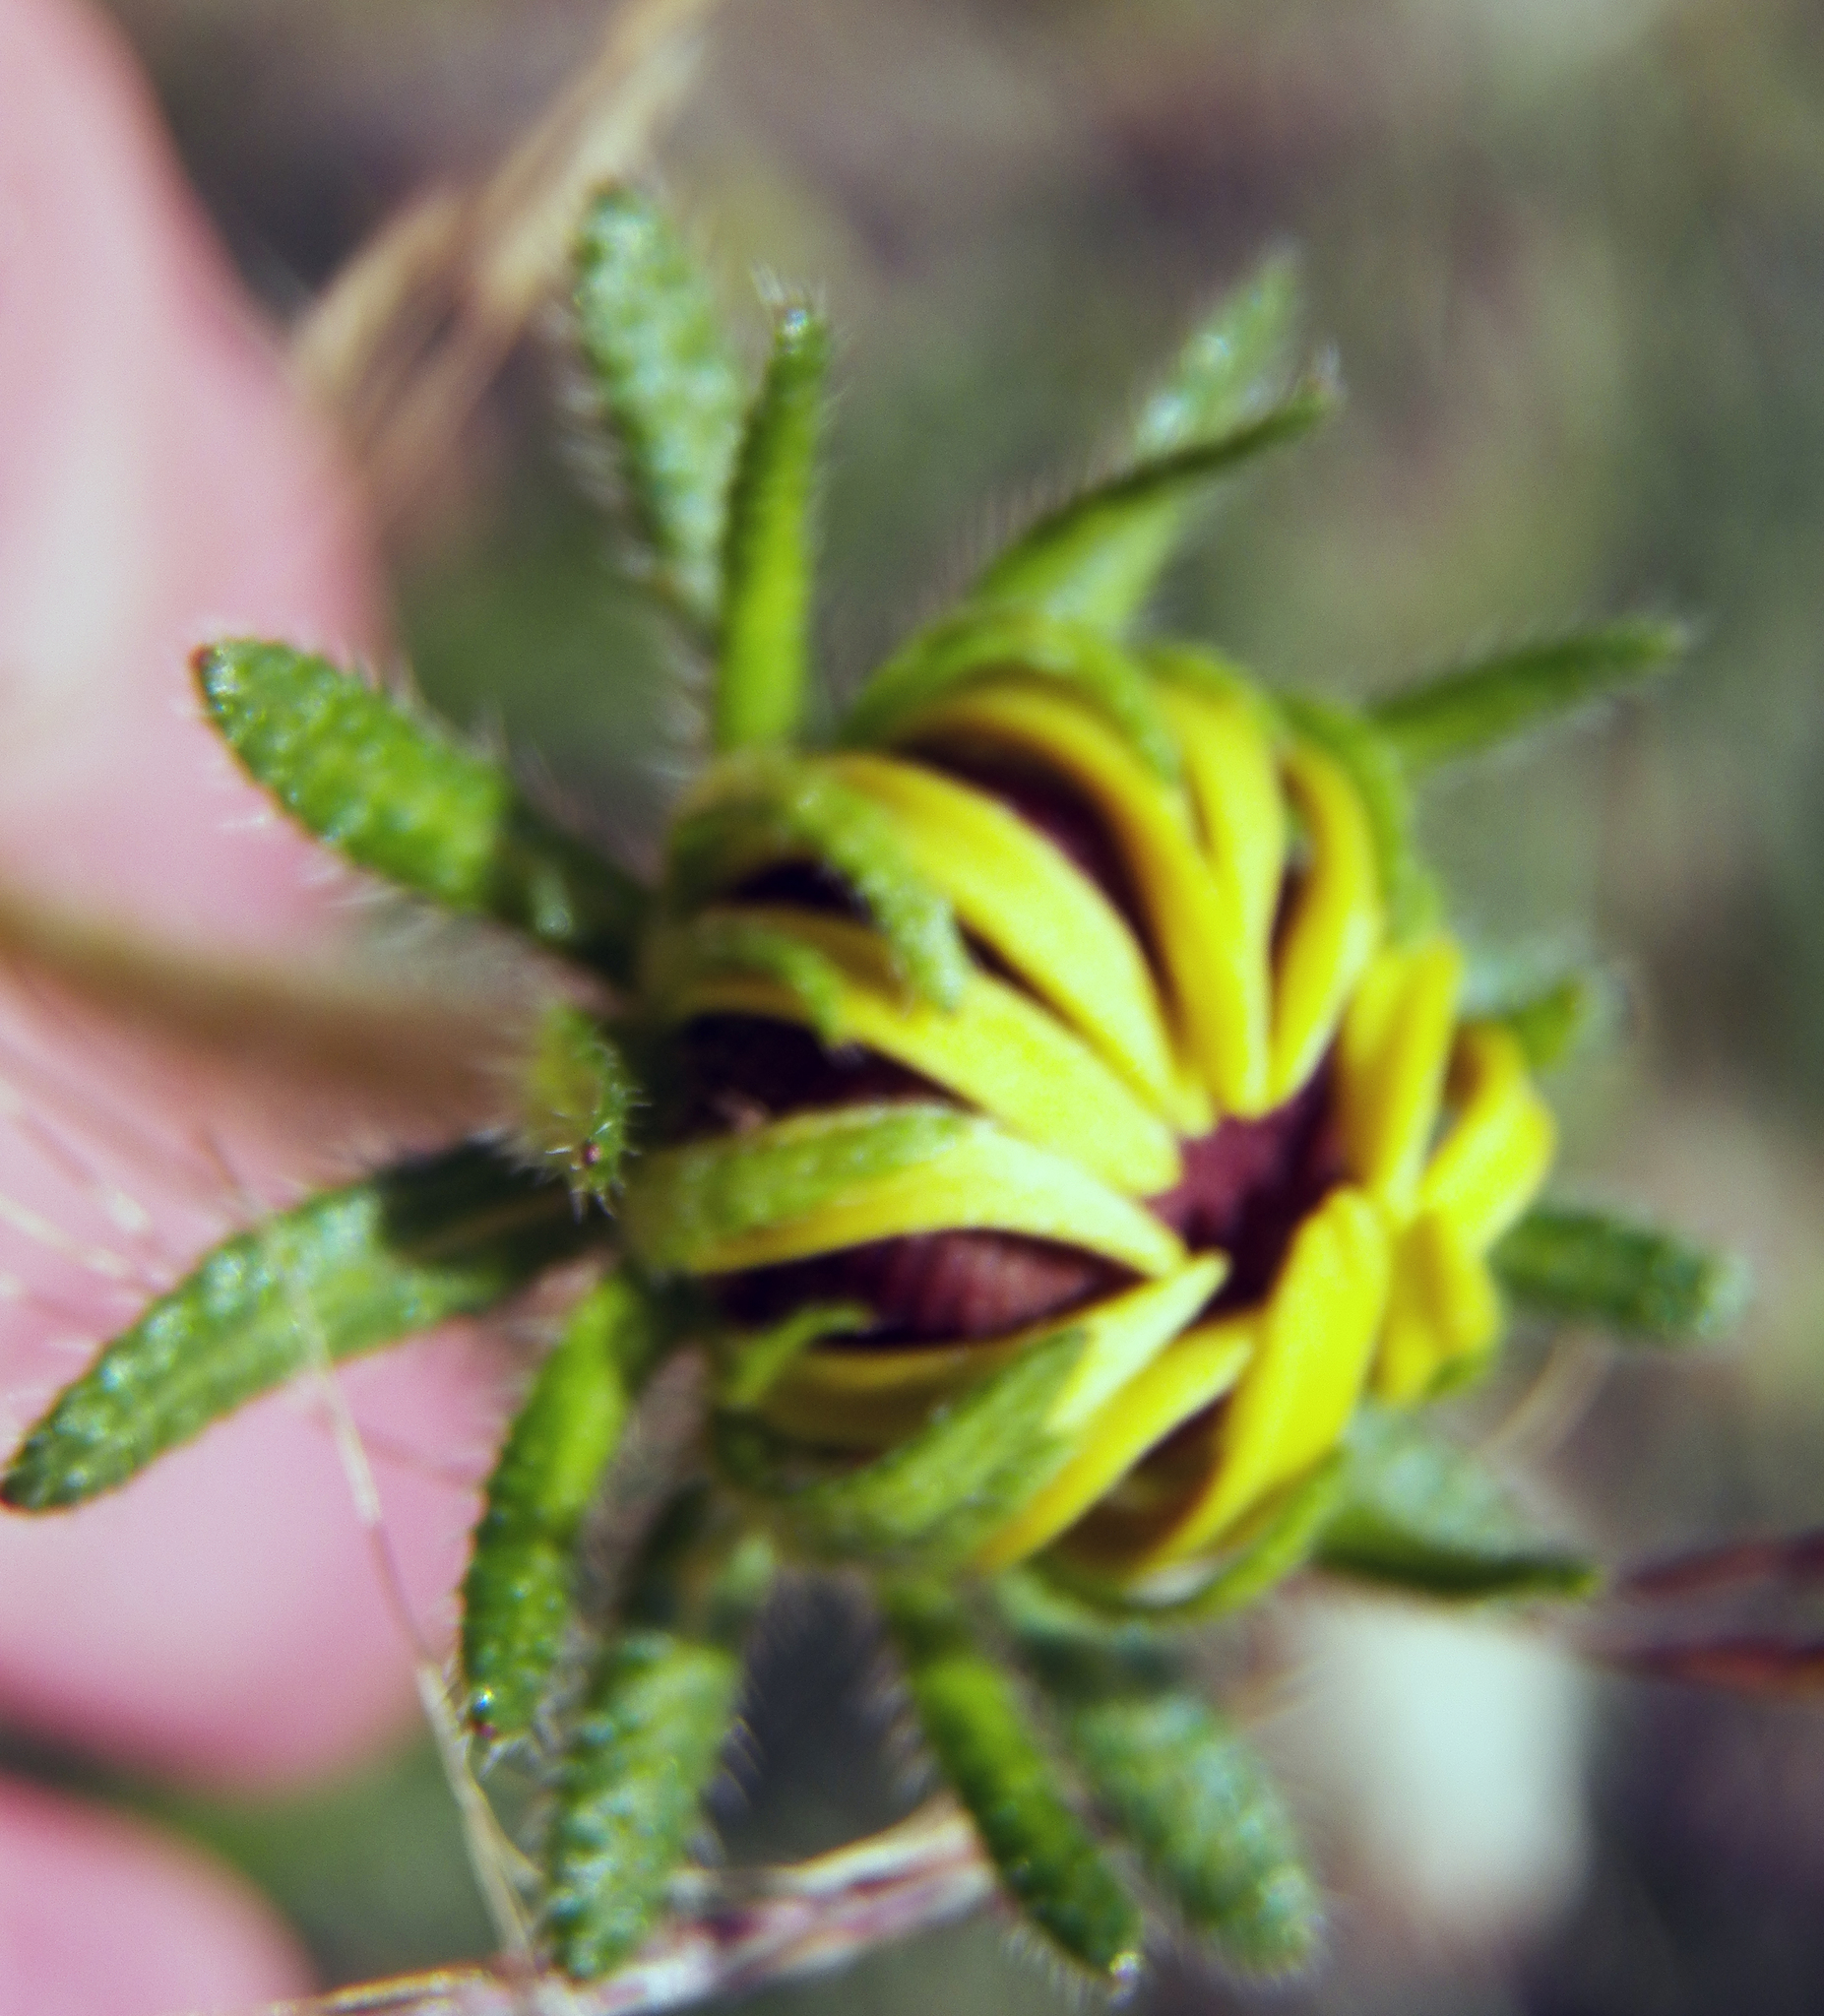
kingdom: Plantae
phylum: Tracheophyta
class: Magnoliopsida
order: Asterales
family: Asteraceae
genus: Rudbeckia
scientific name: Rudbeckia hirta
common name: Black-eyed-susan
